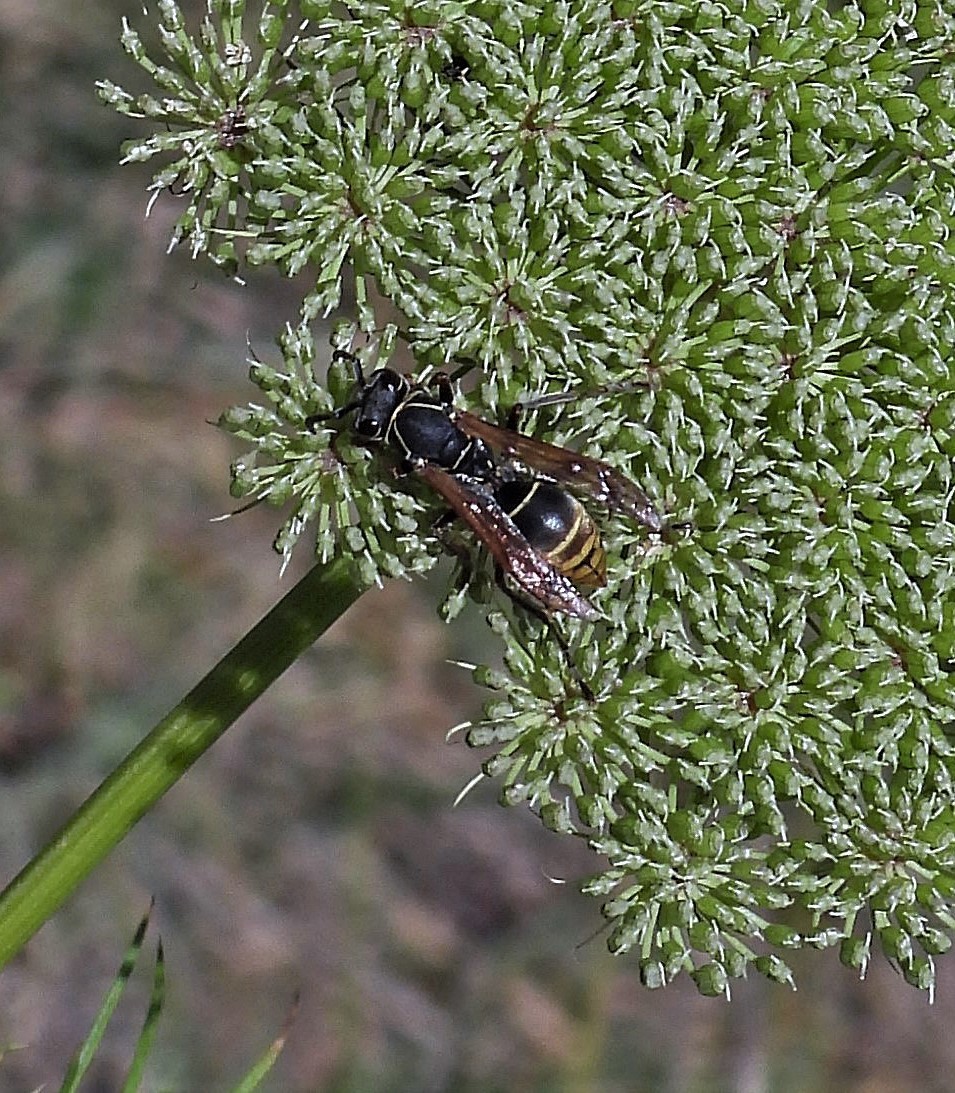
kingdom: Animalia
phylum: Arthropoda
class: Insecta
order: Hymenoptera
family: Eumenidae
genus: Polistes
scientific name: Polistes cinerascens
